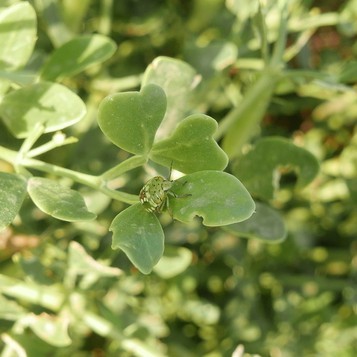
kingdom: Animalia
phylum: Arthropoda
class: Insecta
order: Hemiptera
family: Pentatomidae
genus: Nezara
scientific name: Nezara viridula
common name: Southern green stink bug
